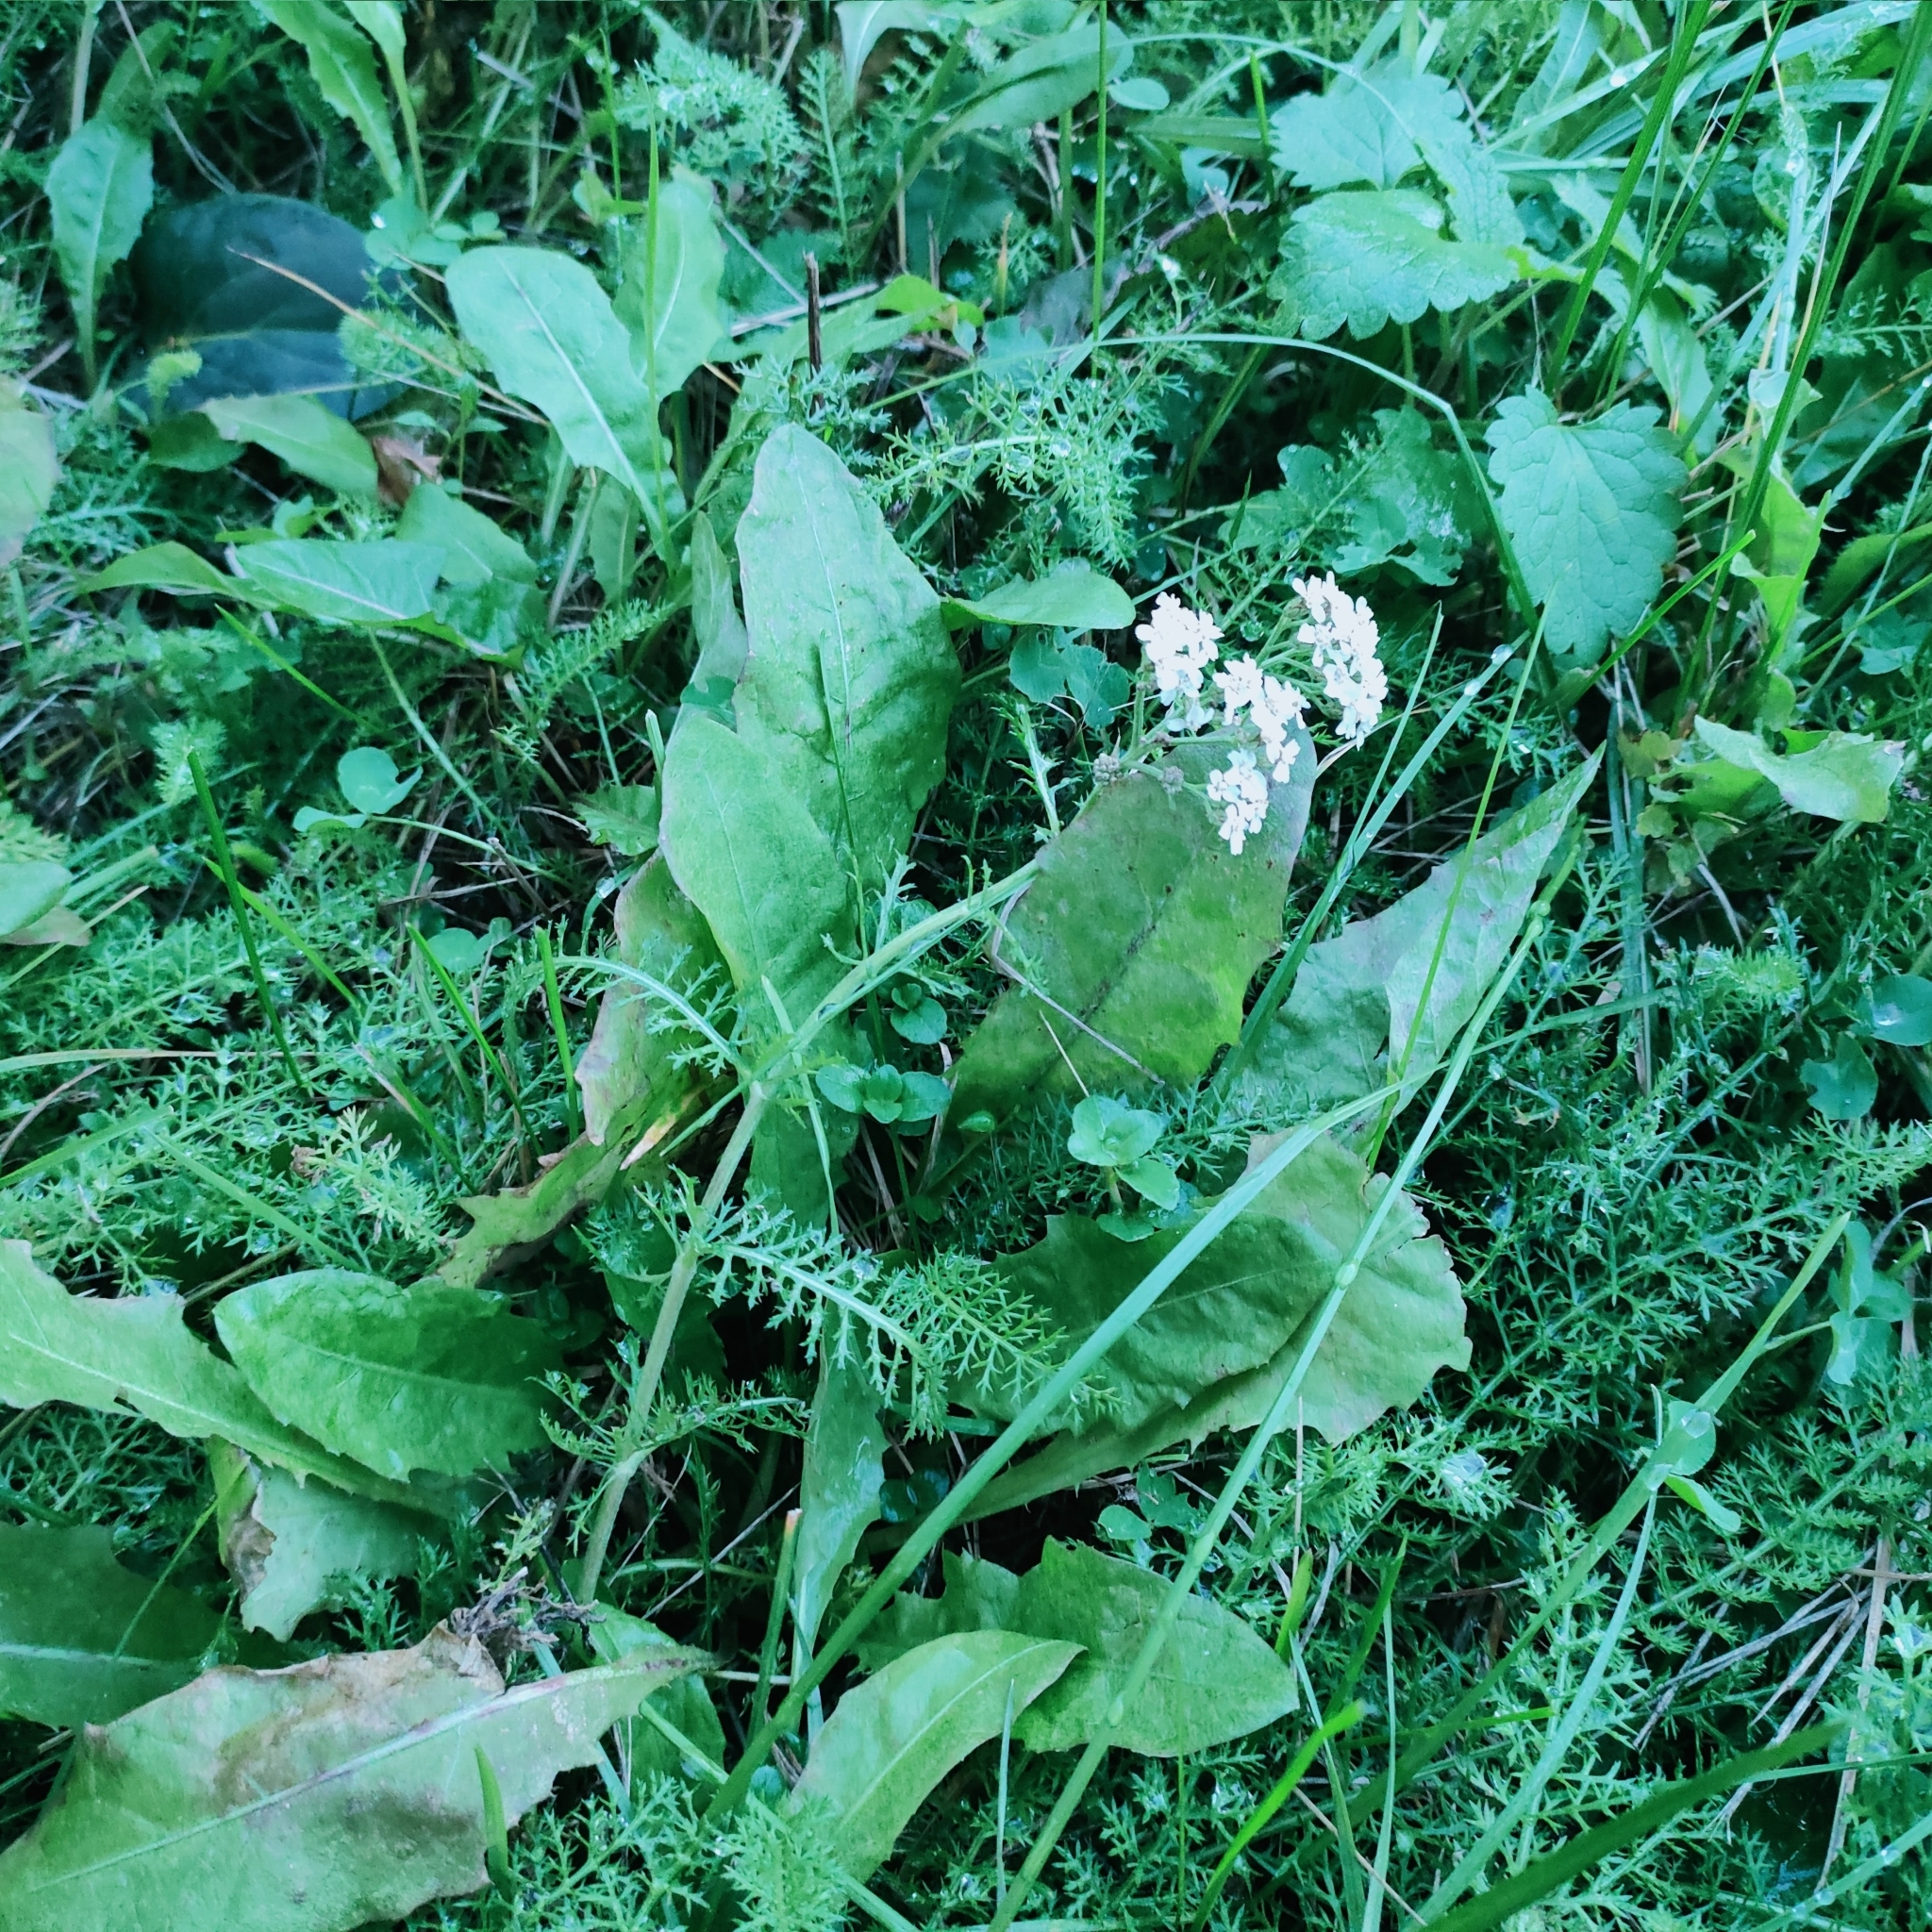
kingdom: Plantae
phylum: Tracheophyta
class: Magnoliopsida
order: Asterales
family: Asteraceae
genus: Achillea
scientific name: Achillea millefolium
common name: Yarrow
